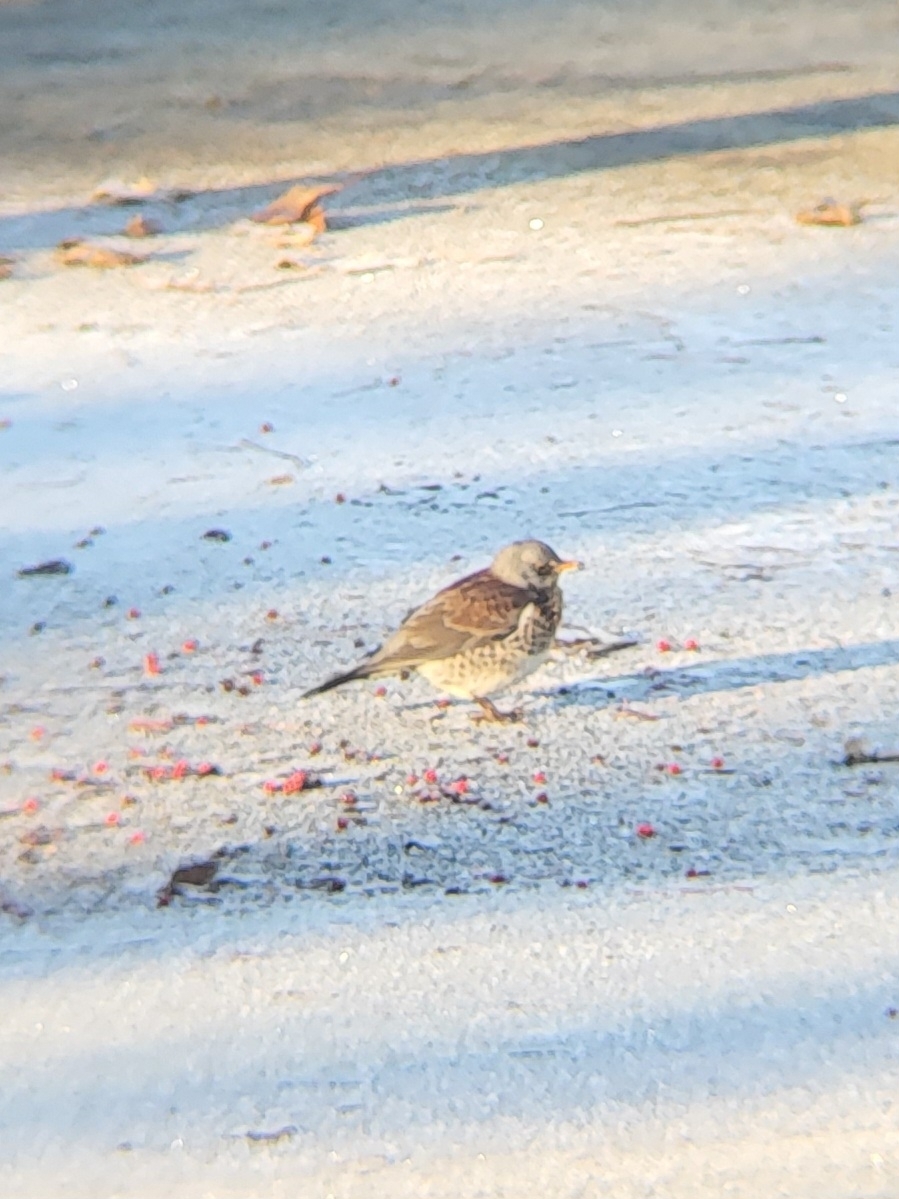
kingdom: Animalia
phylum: Chordata
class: Aves
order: Passeriformes
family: Turdidae
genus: Turdus
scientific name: Turdus pilaris
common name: Fieldfare
